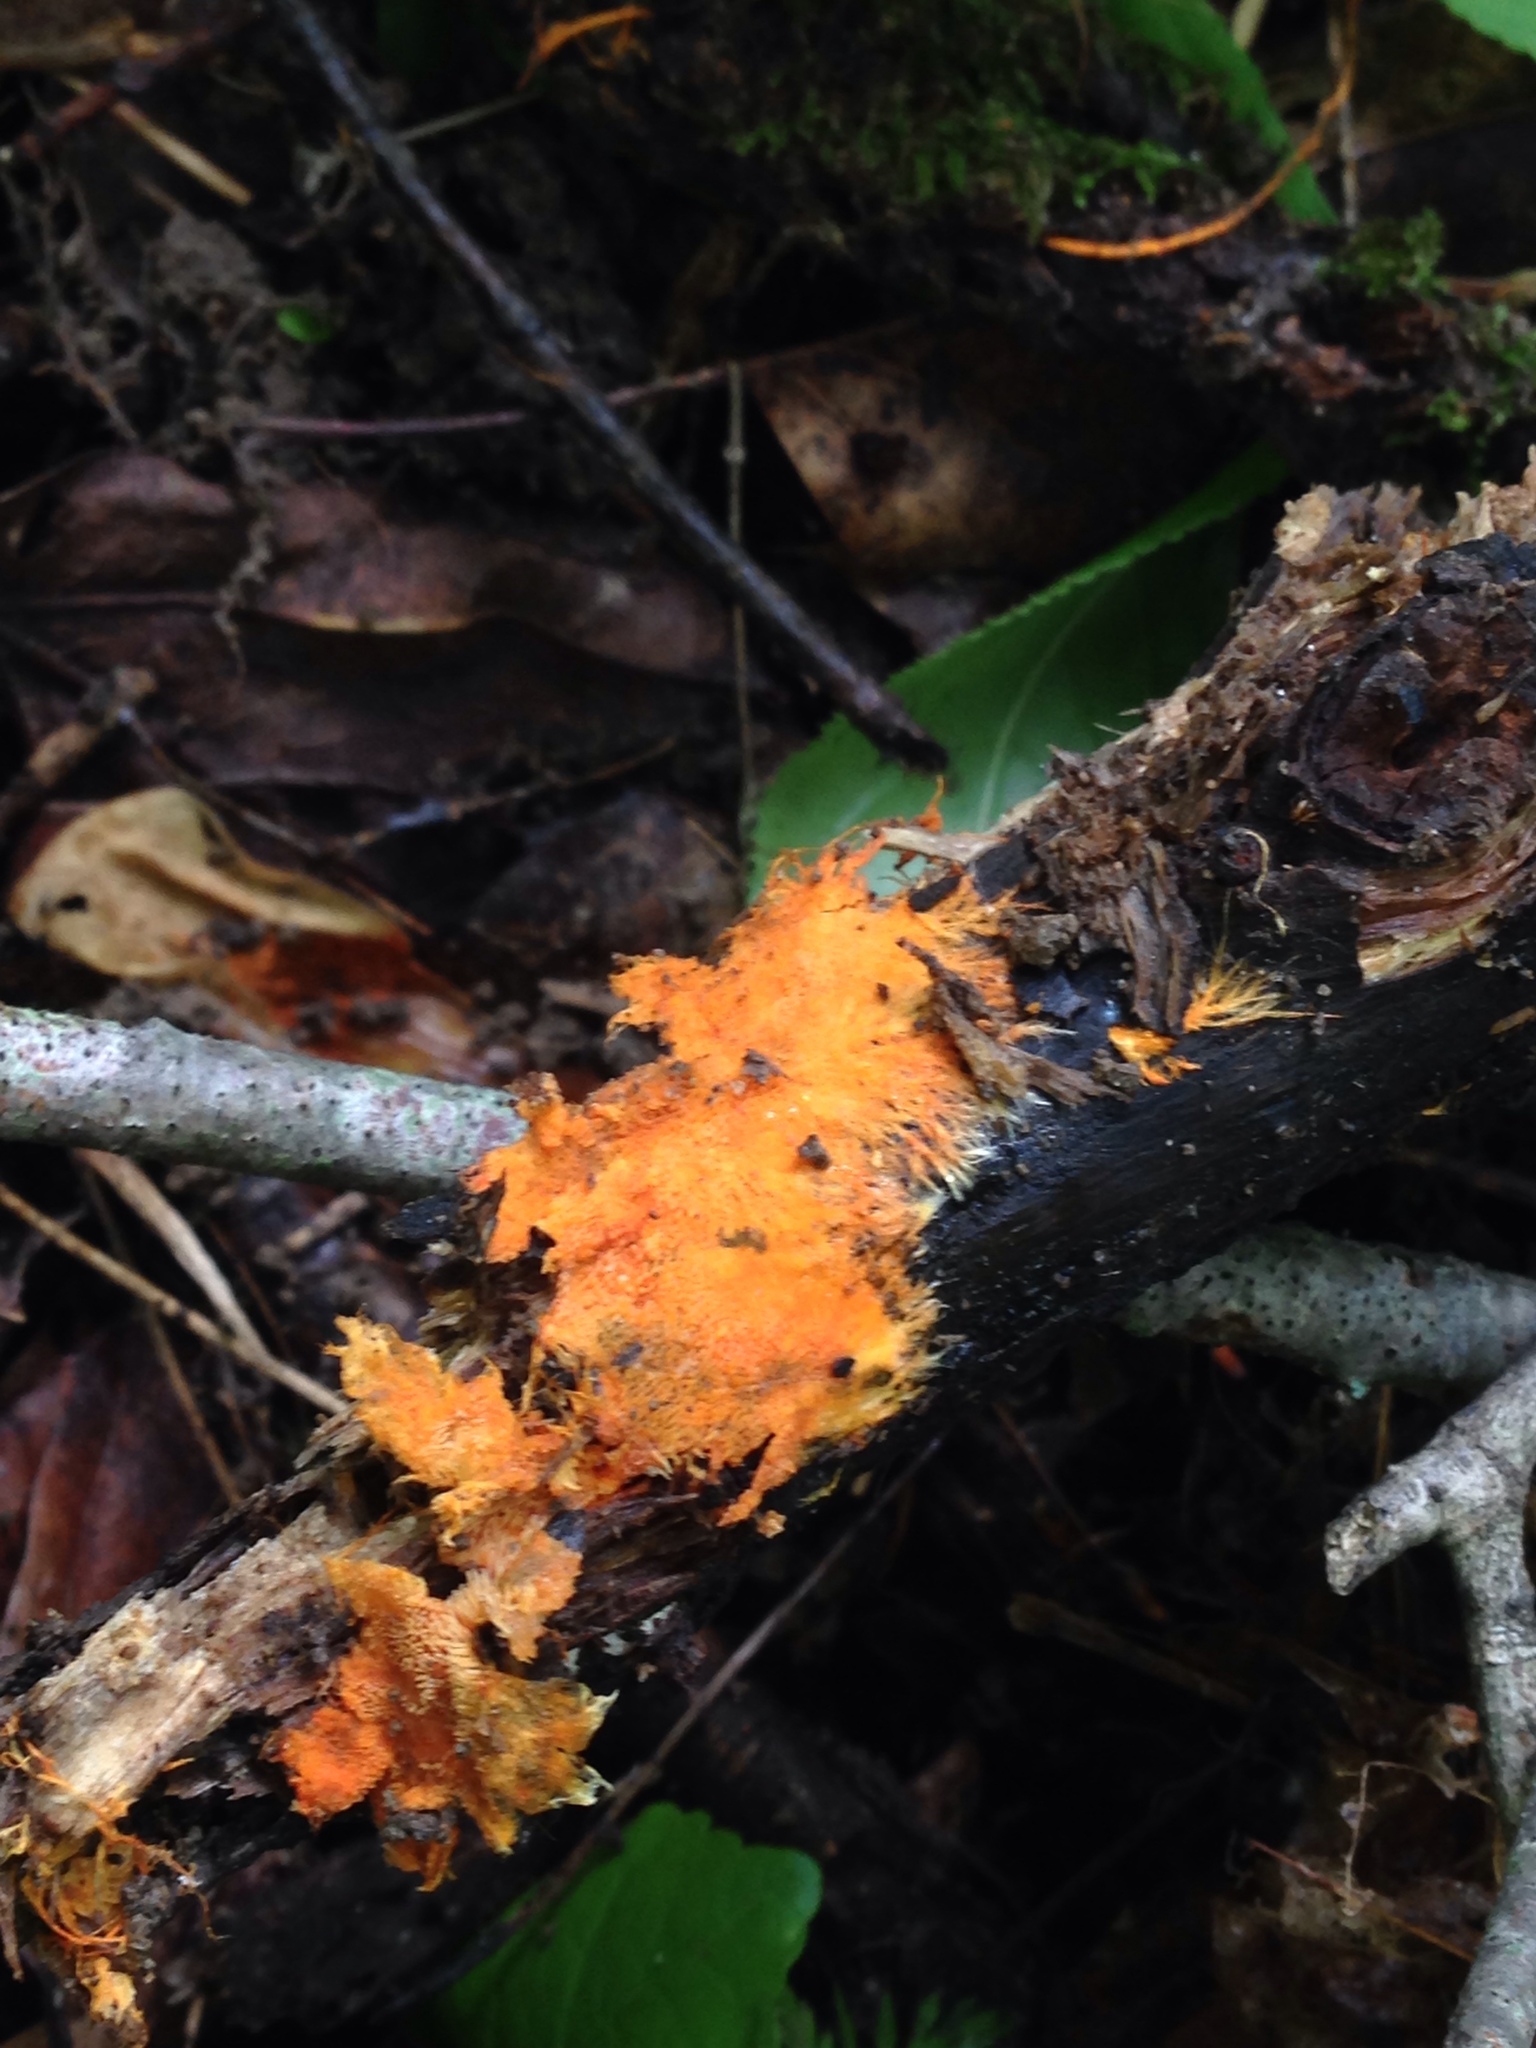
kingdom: Fungi
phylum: Basidiomycota
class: Agaricomycetes
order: Polyporales
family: Meruliaceae
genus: Hydnophlebia
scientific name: Hydnophlebia chrysorhiza
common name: Spreading yellow tooth
